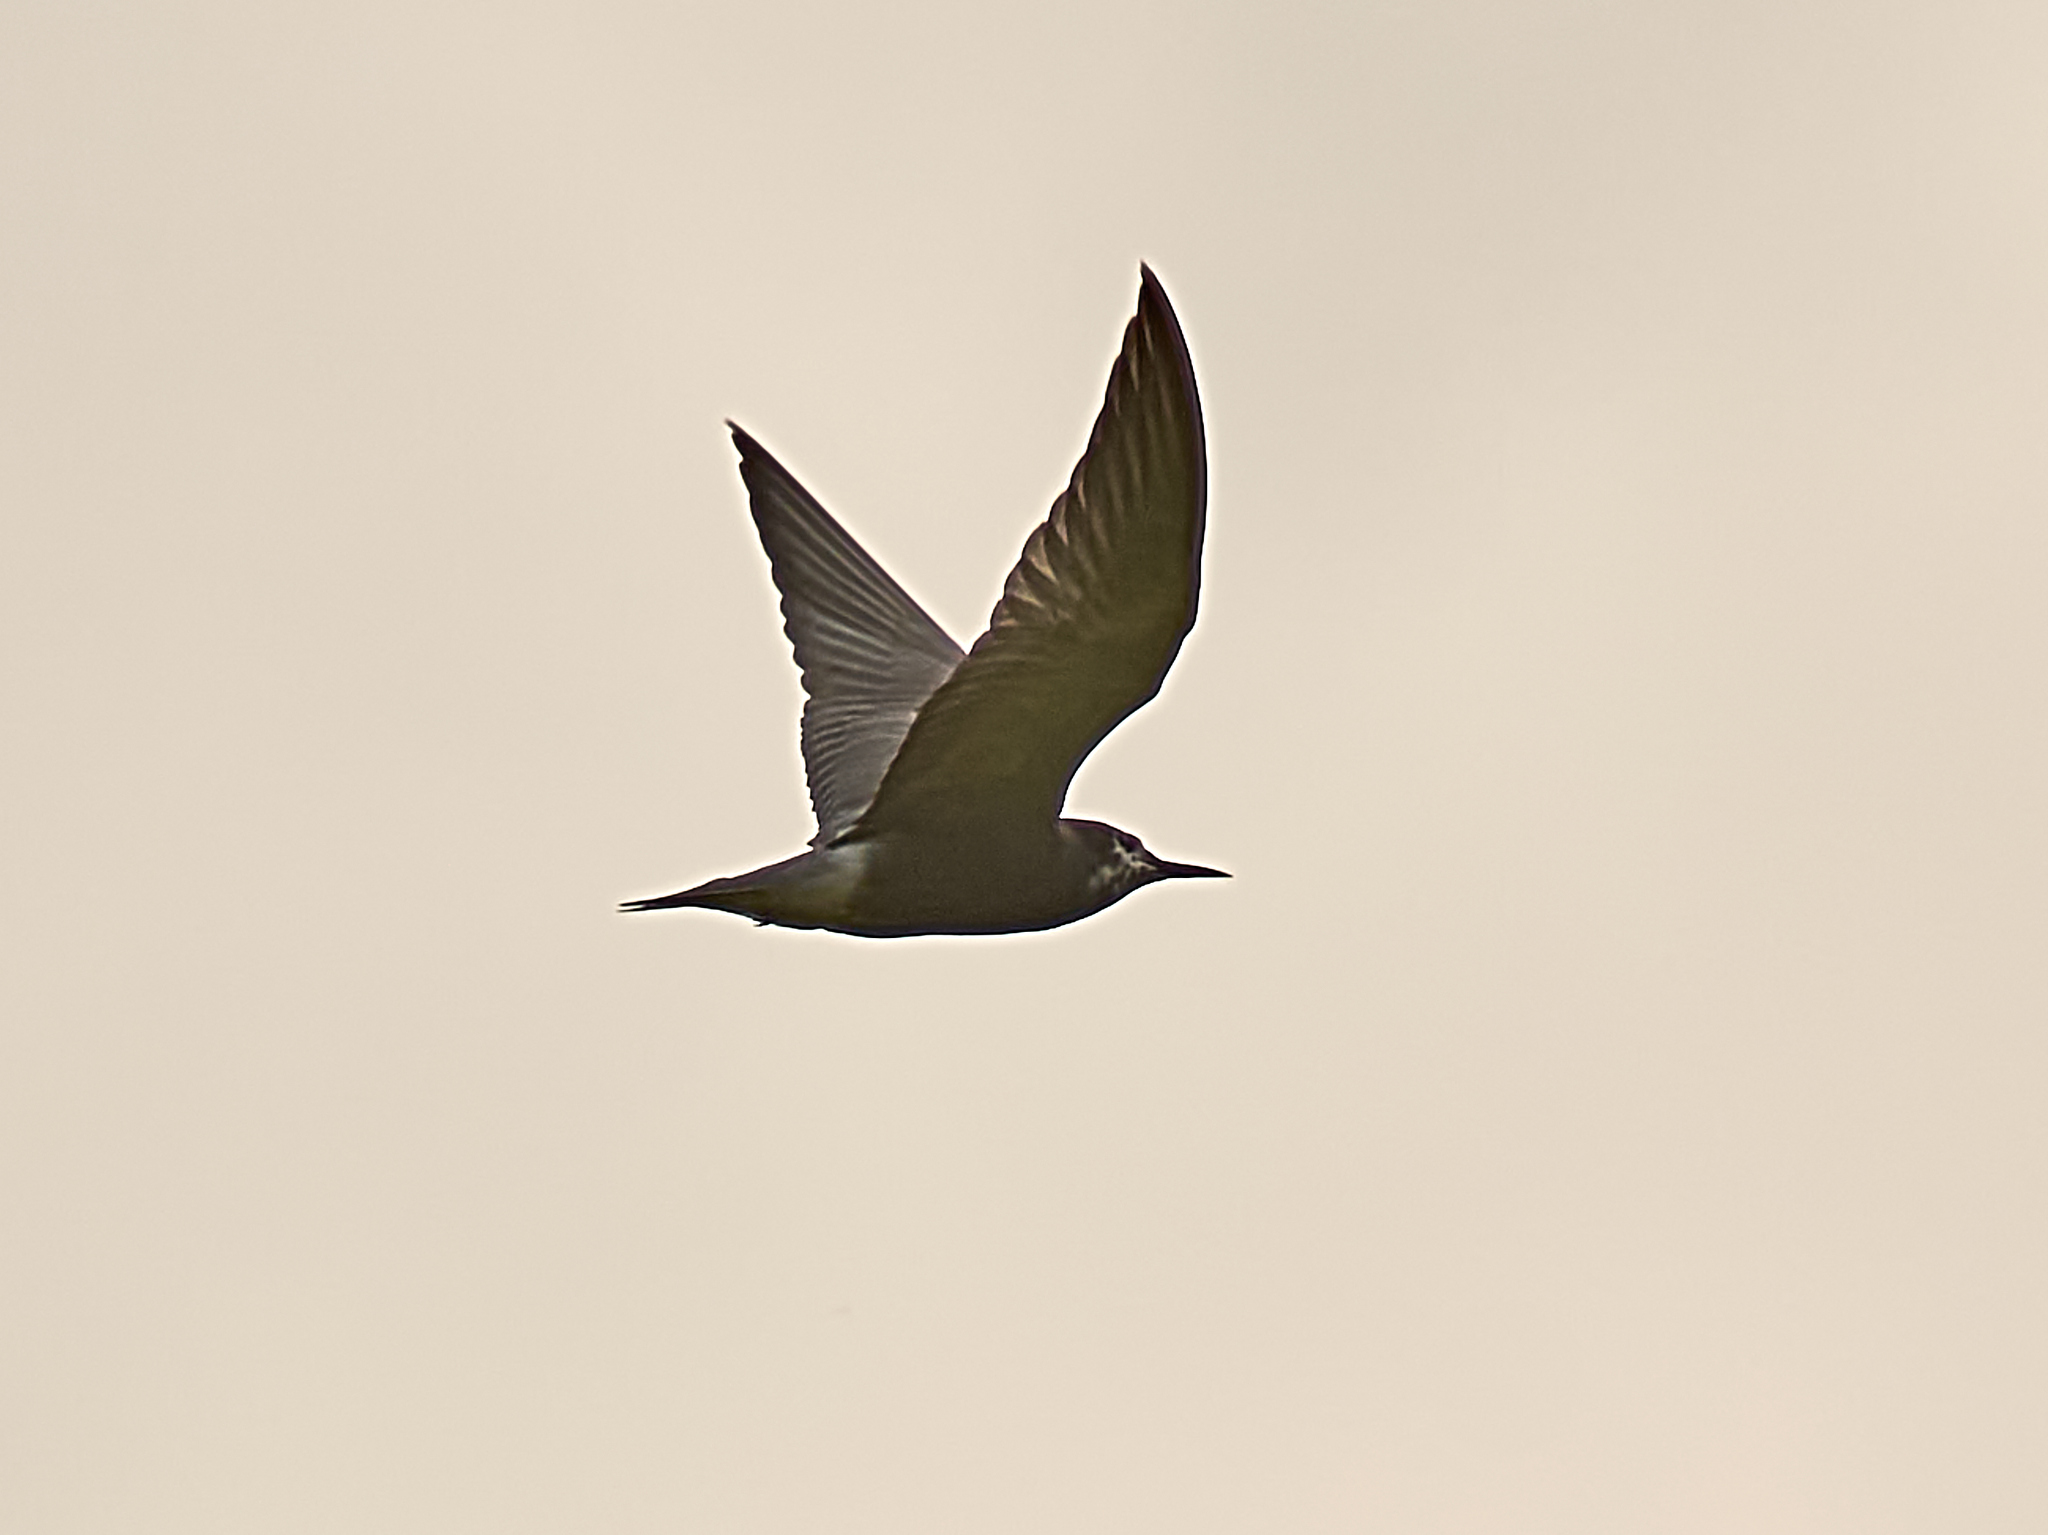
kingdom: Animalia
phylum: Chordata
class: Aves
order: Charadriiformes
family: Laridae
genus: Chlidonias
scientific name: Chlidonias niger
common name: Black tern
